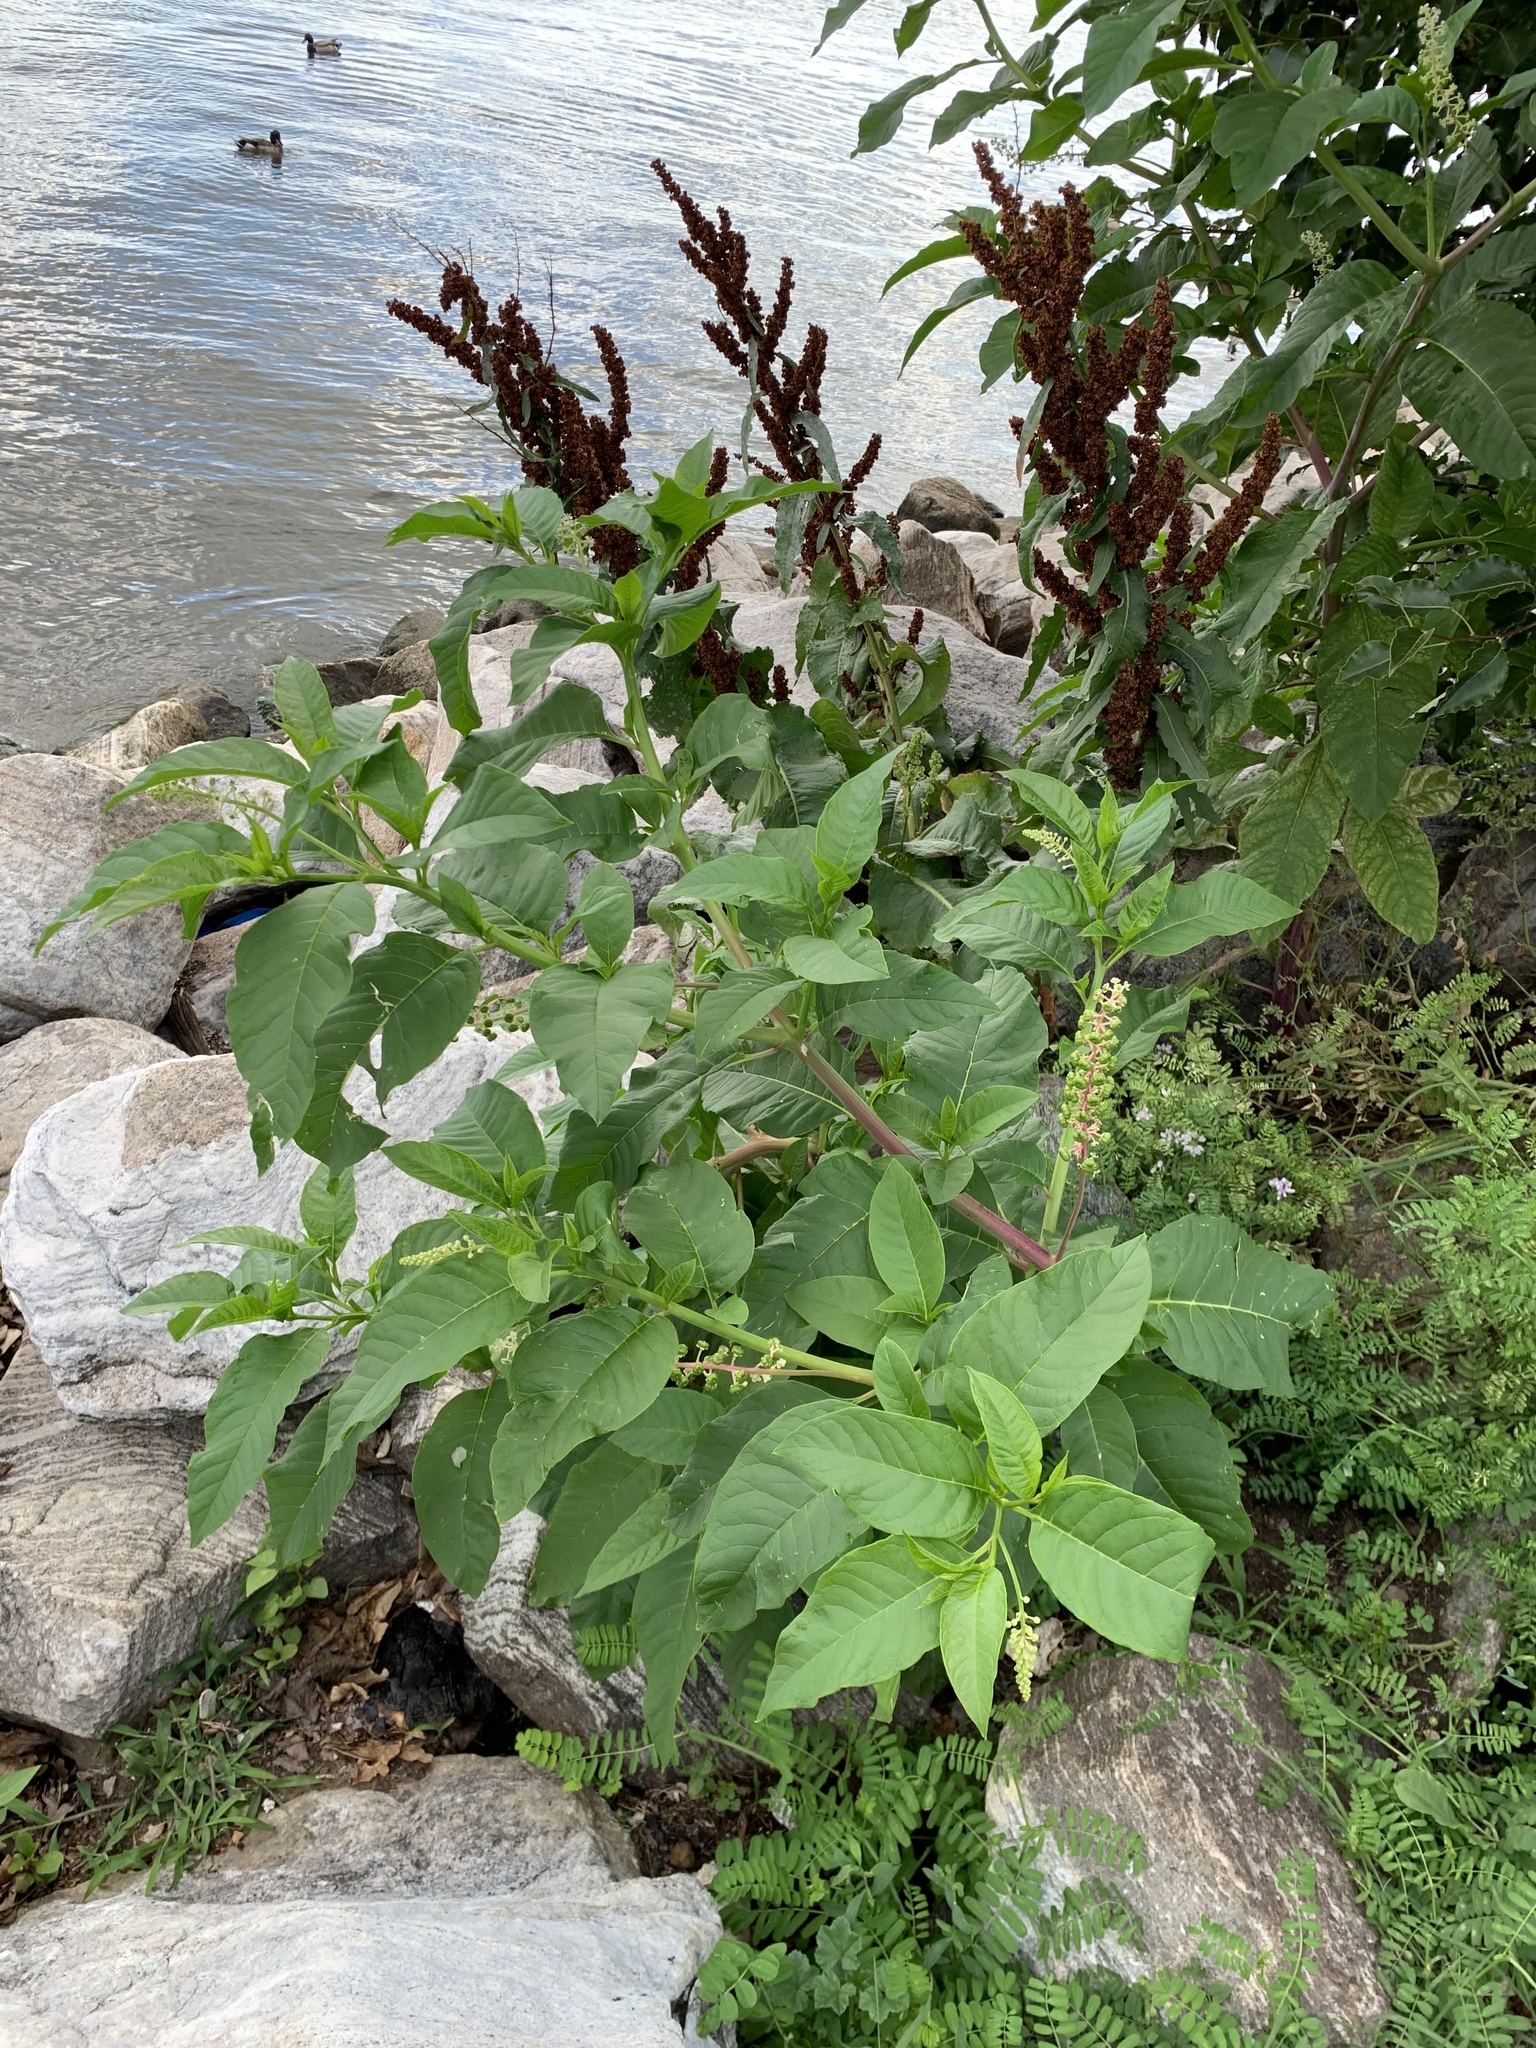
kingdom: Plantae
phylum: Tracheophyta
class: Magnoliopsida
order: Caryophyllales
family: Phytolaccaceae
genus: Phytolacca
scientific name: Phytolacca americana
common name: American pokeweed
